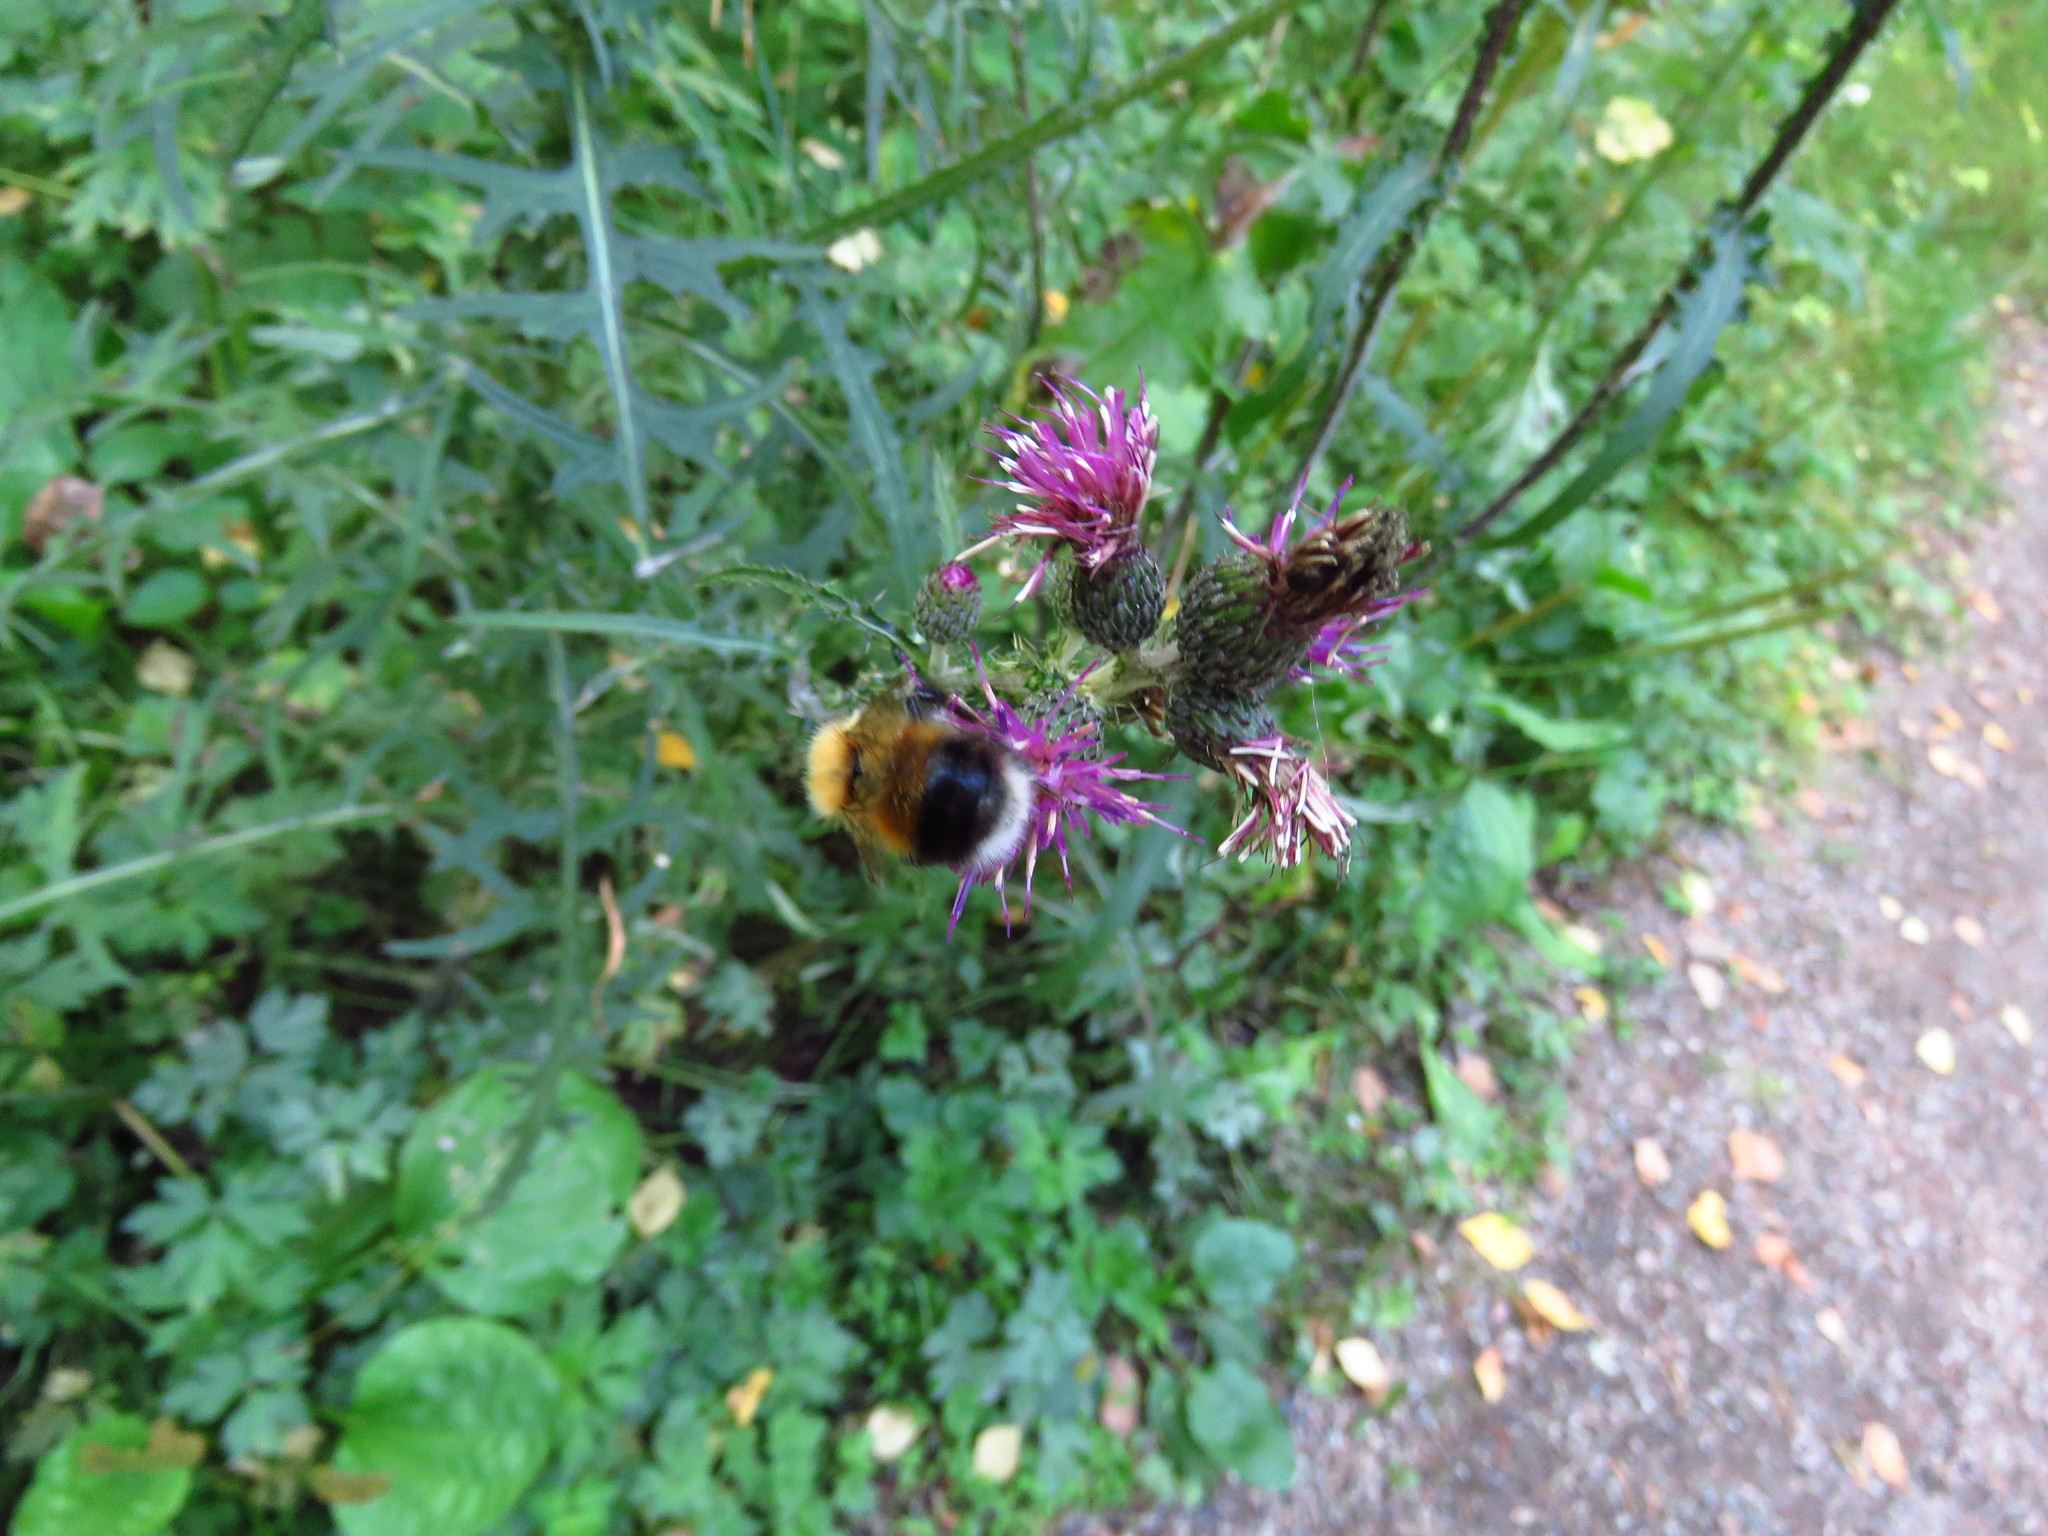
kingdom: Animalia
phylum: Arthropoda
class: Insecta
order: Hymenoptera
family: Apidae
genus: Bombus
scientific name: Bombus hypnorum
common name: New garden bumblebee
